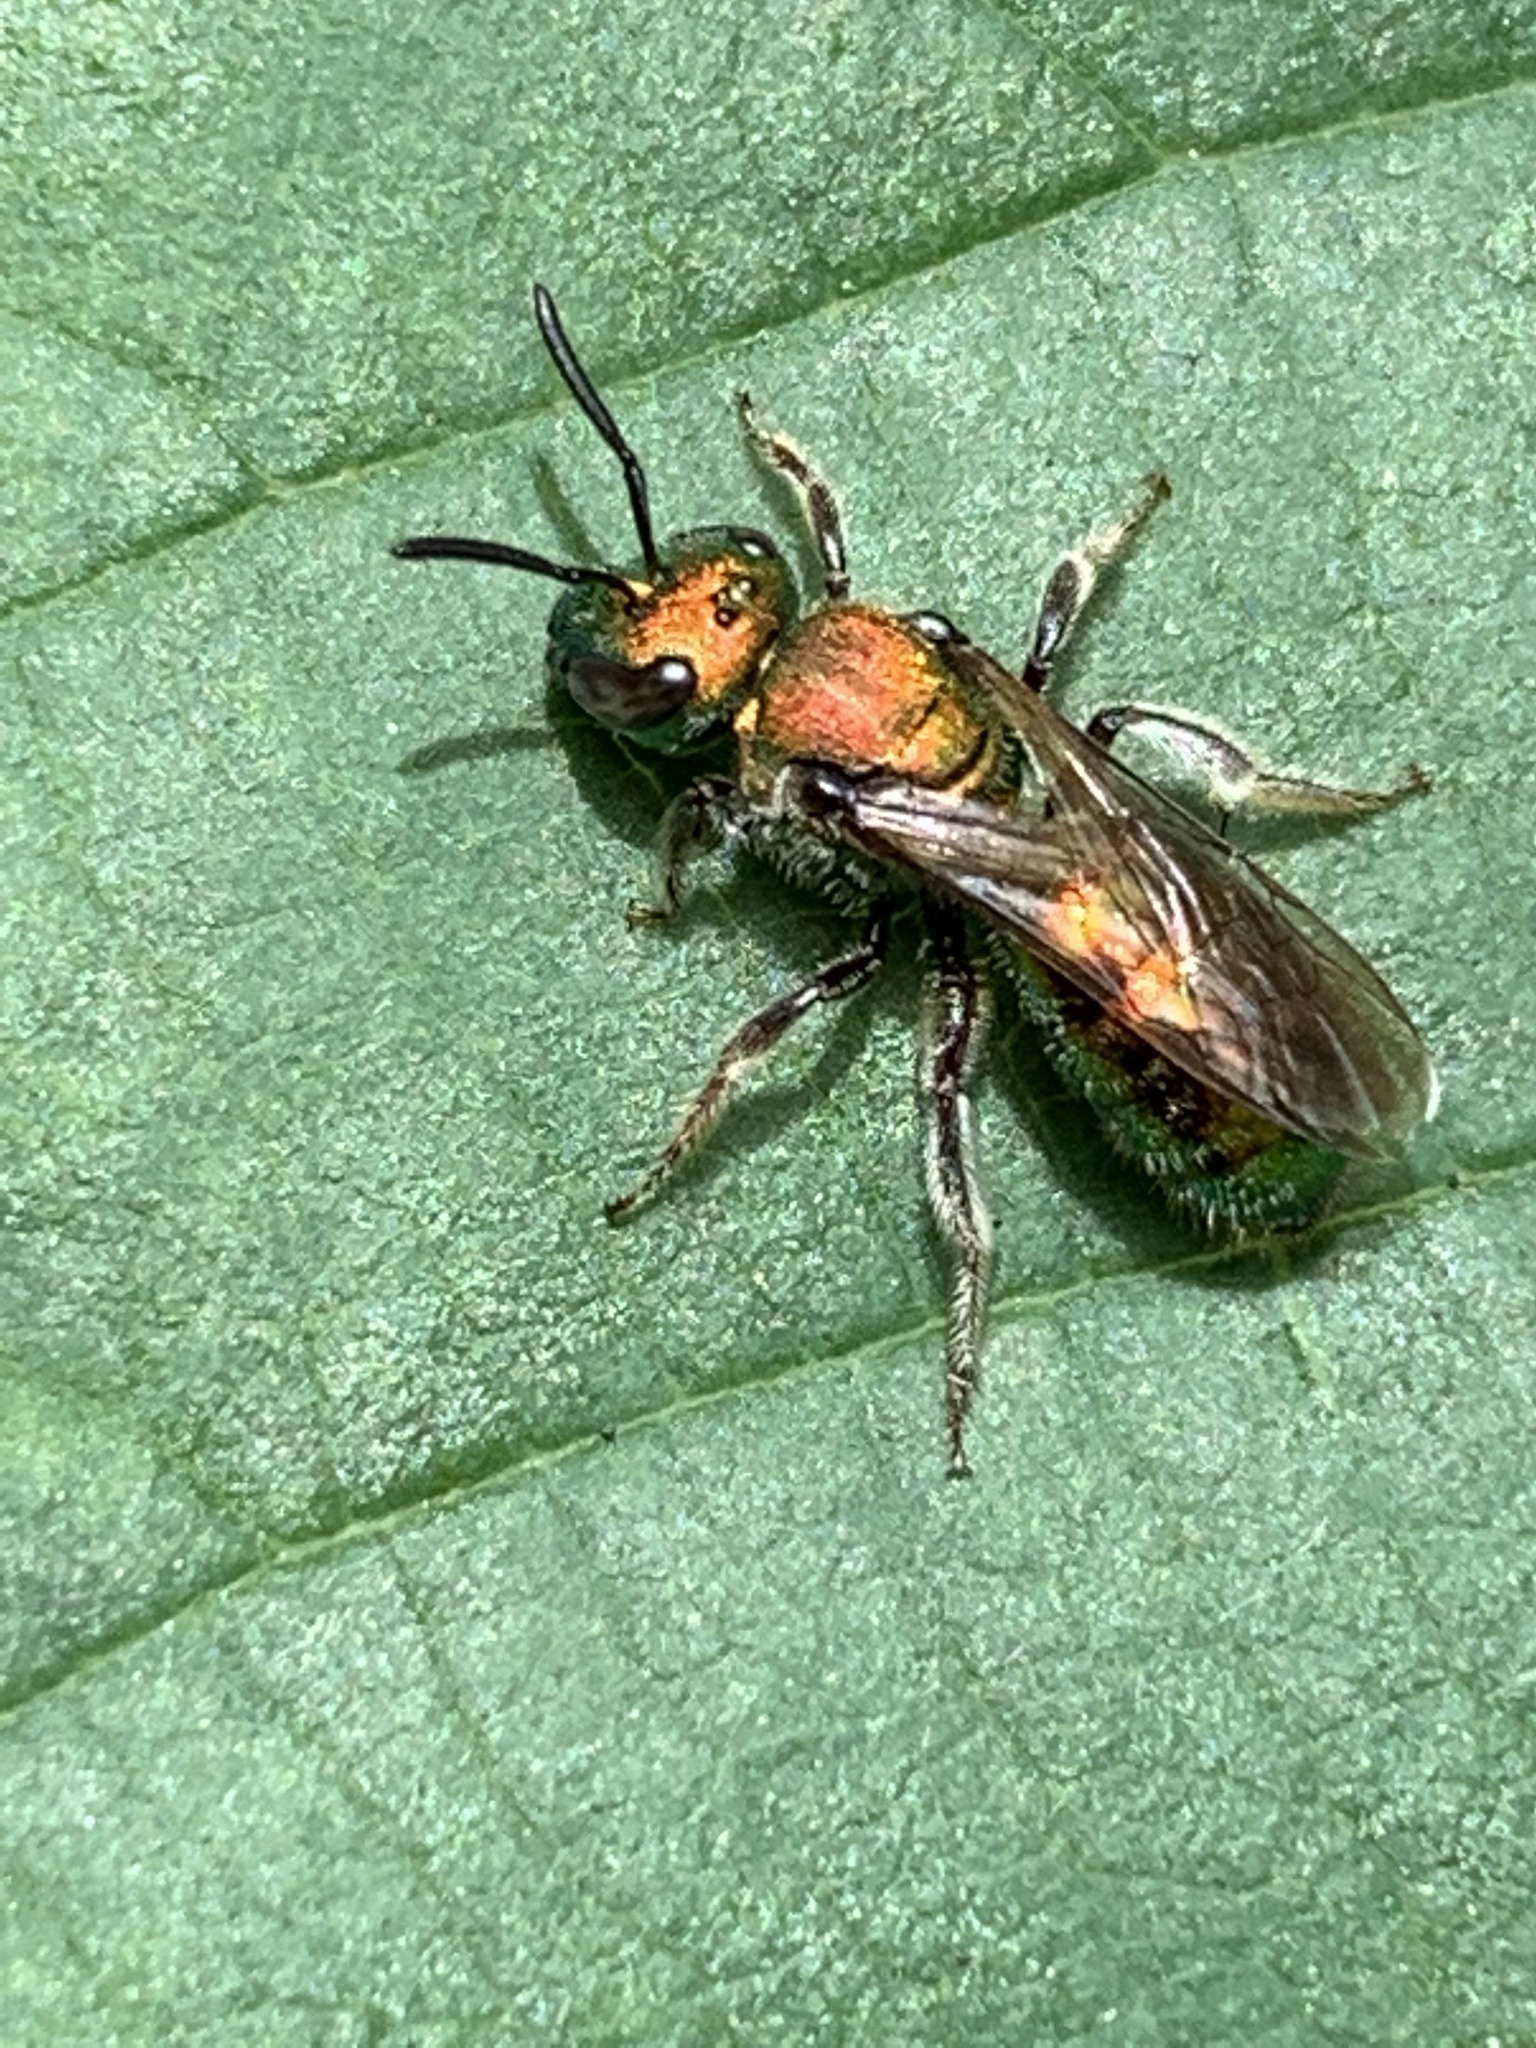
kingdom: Animalia
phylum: Arthropoda
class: Insecta
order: Hymenoptera
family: Halictidae
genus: Augochlora
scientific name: Augochlora pura
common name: Pure green sweat bee
